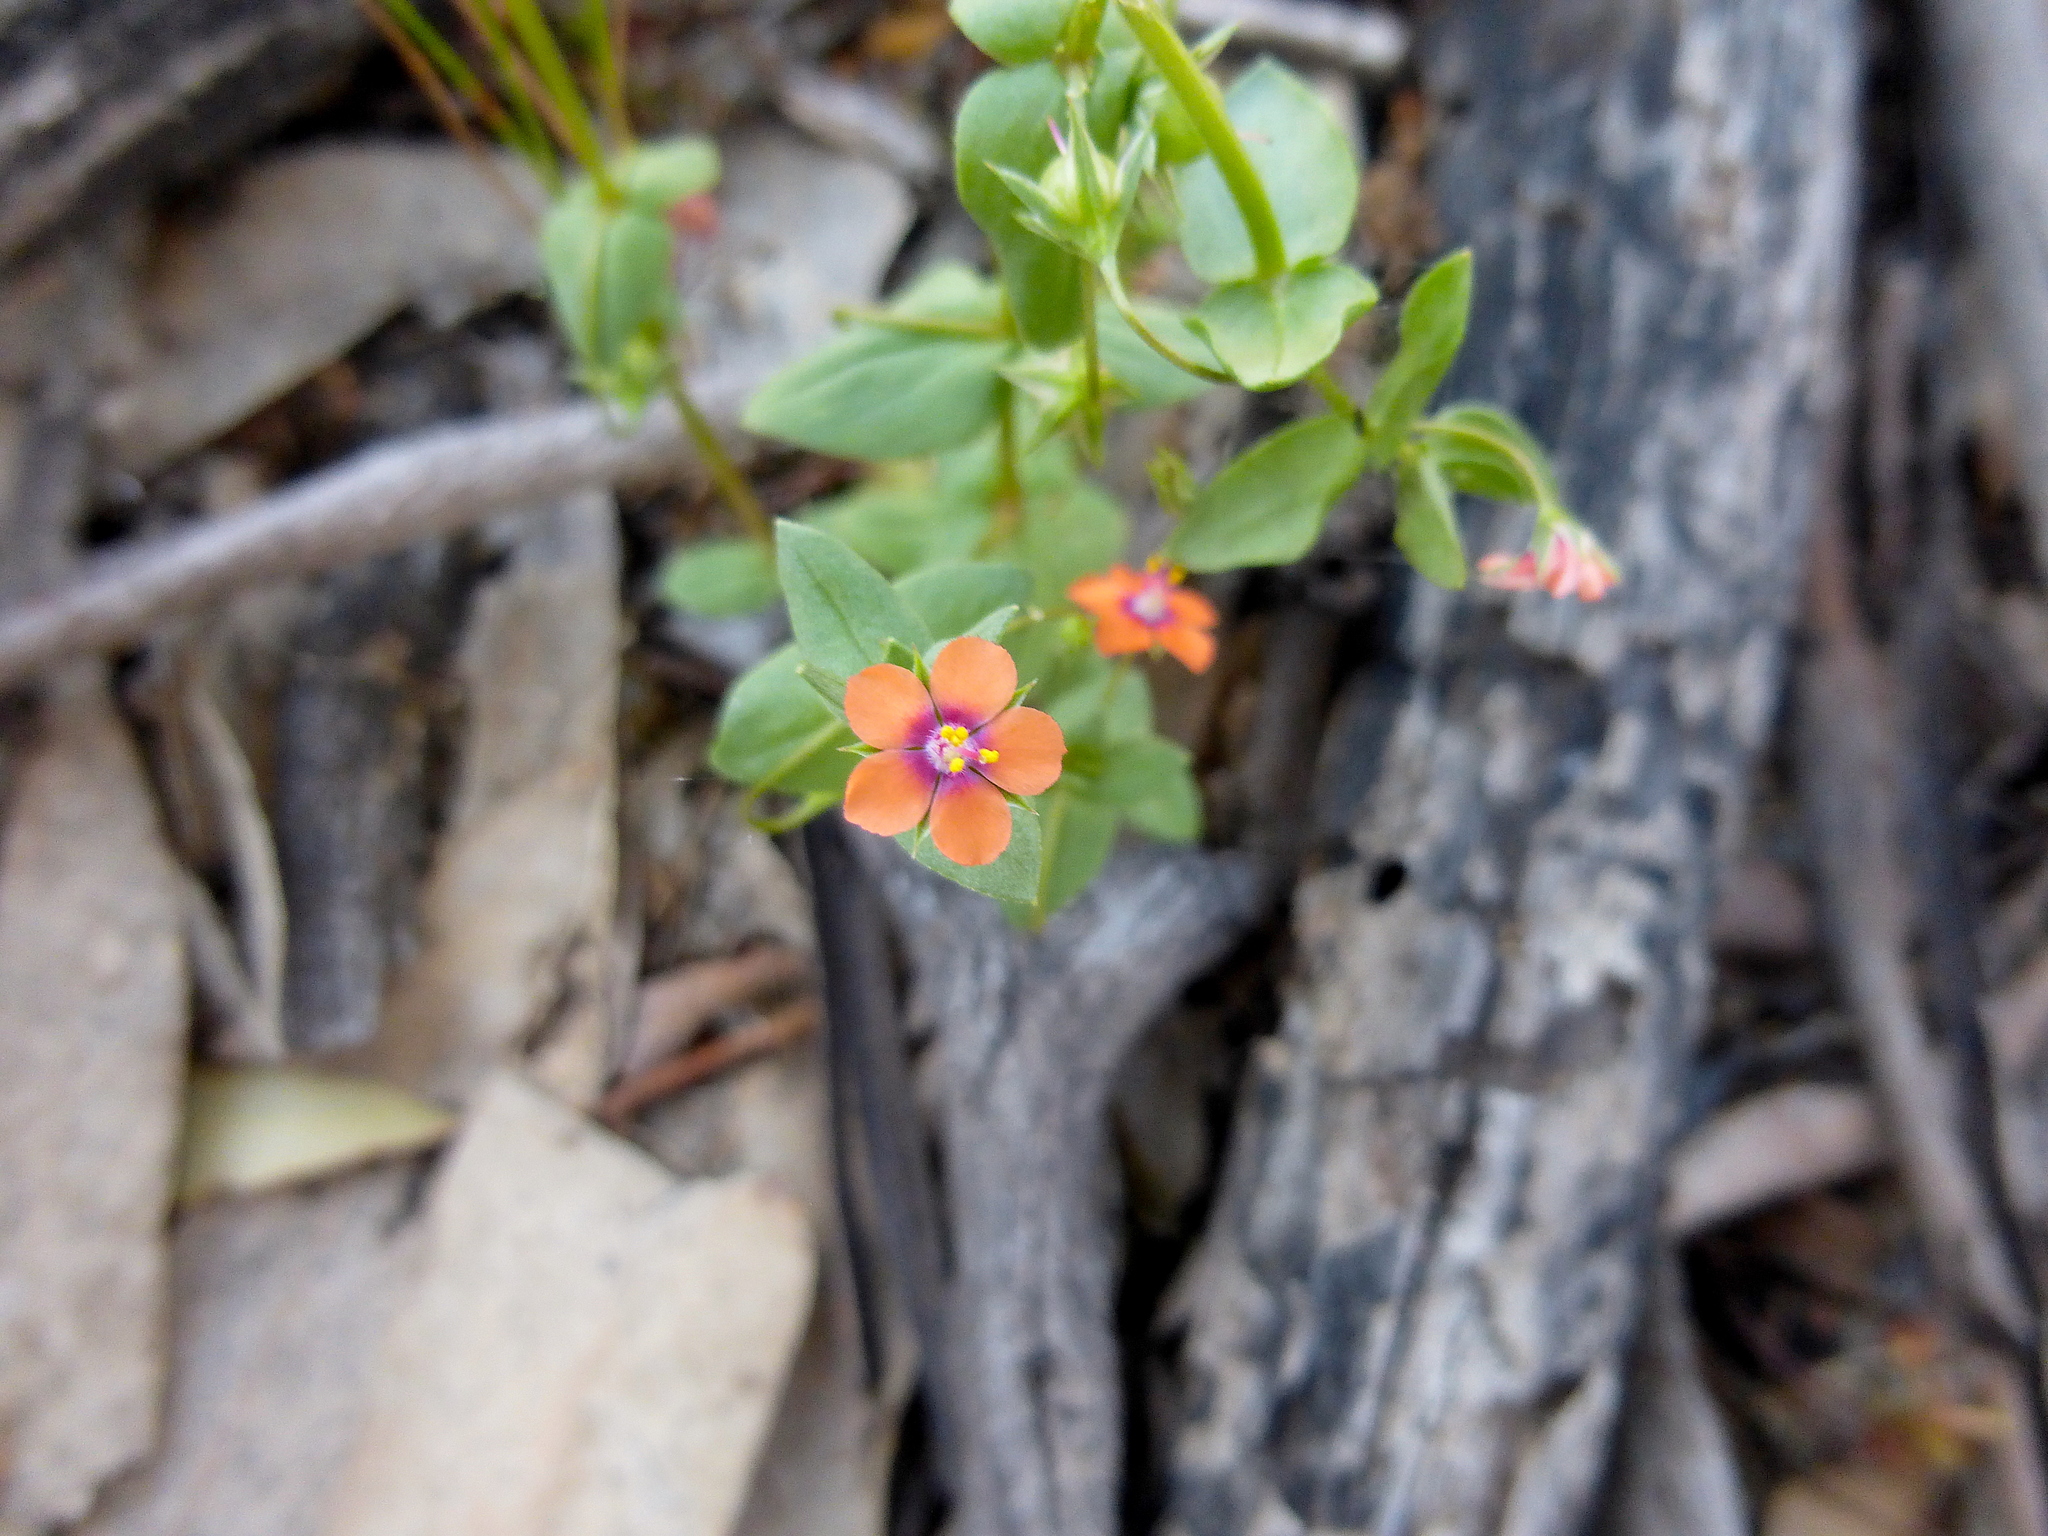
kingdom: Plantae
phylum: Tracheophyta
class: Magnoliopsida
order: Ericales
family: Primulaceae
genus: Lysimachia
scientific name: Lysimachia arvensis
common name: Scarlet pimpernel
